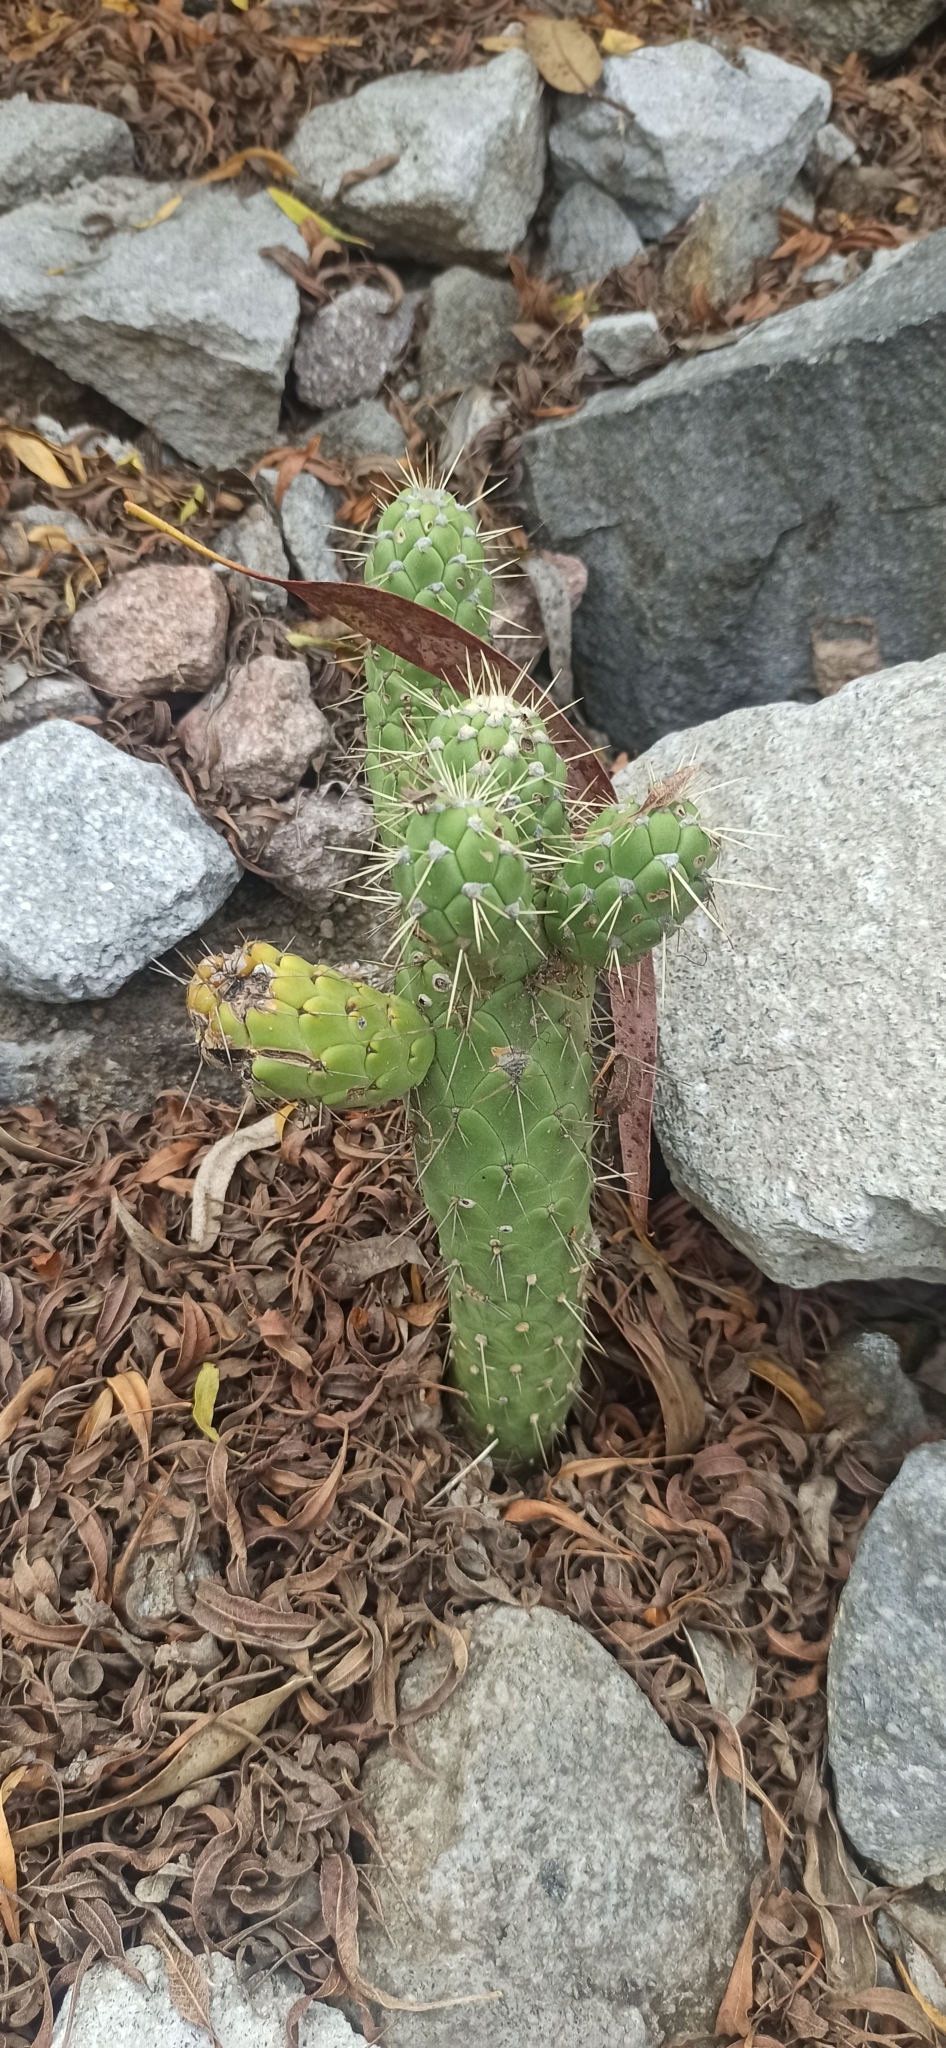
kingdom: Plantae
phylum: Tracheophyta
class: Magnoliopsida
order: Caryophyllales
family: Cactaceae
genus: Austrocylindropuntia
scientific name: Austrocylindropuntia cylindrica
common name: Cane cactus
